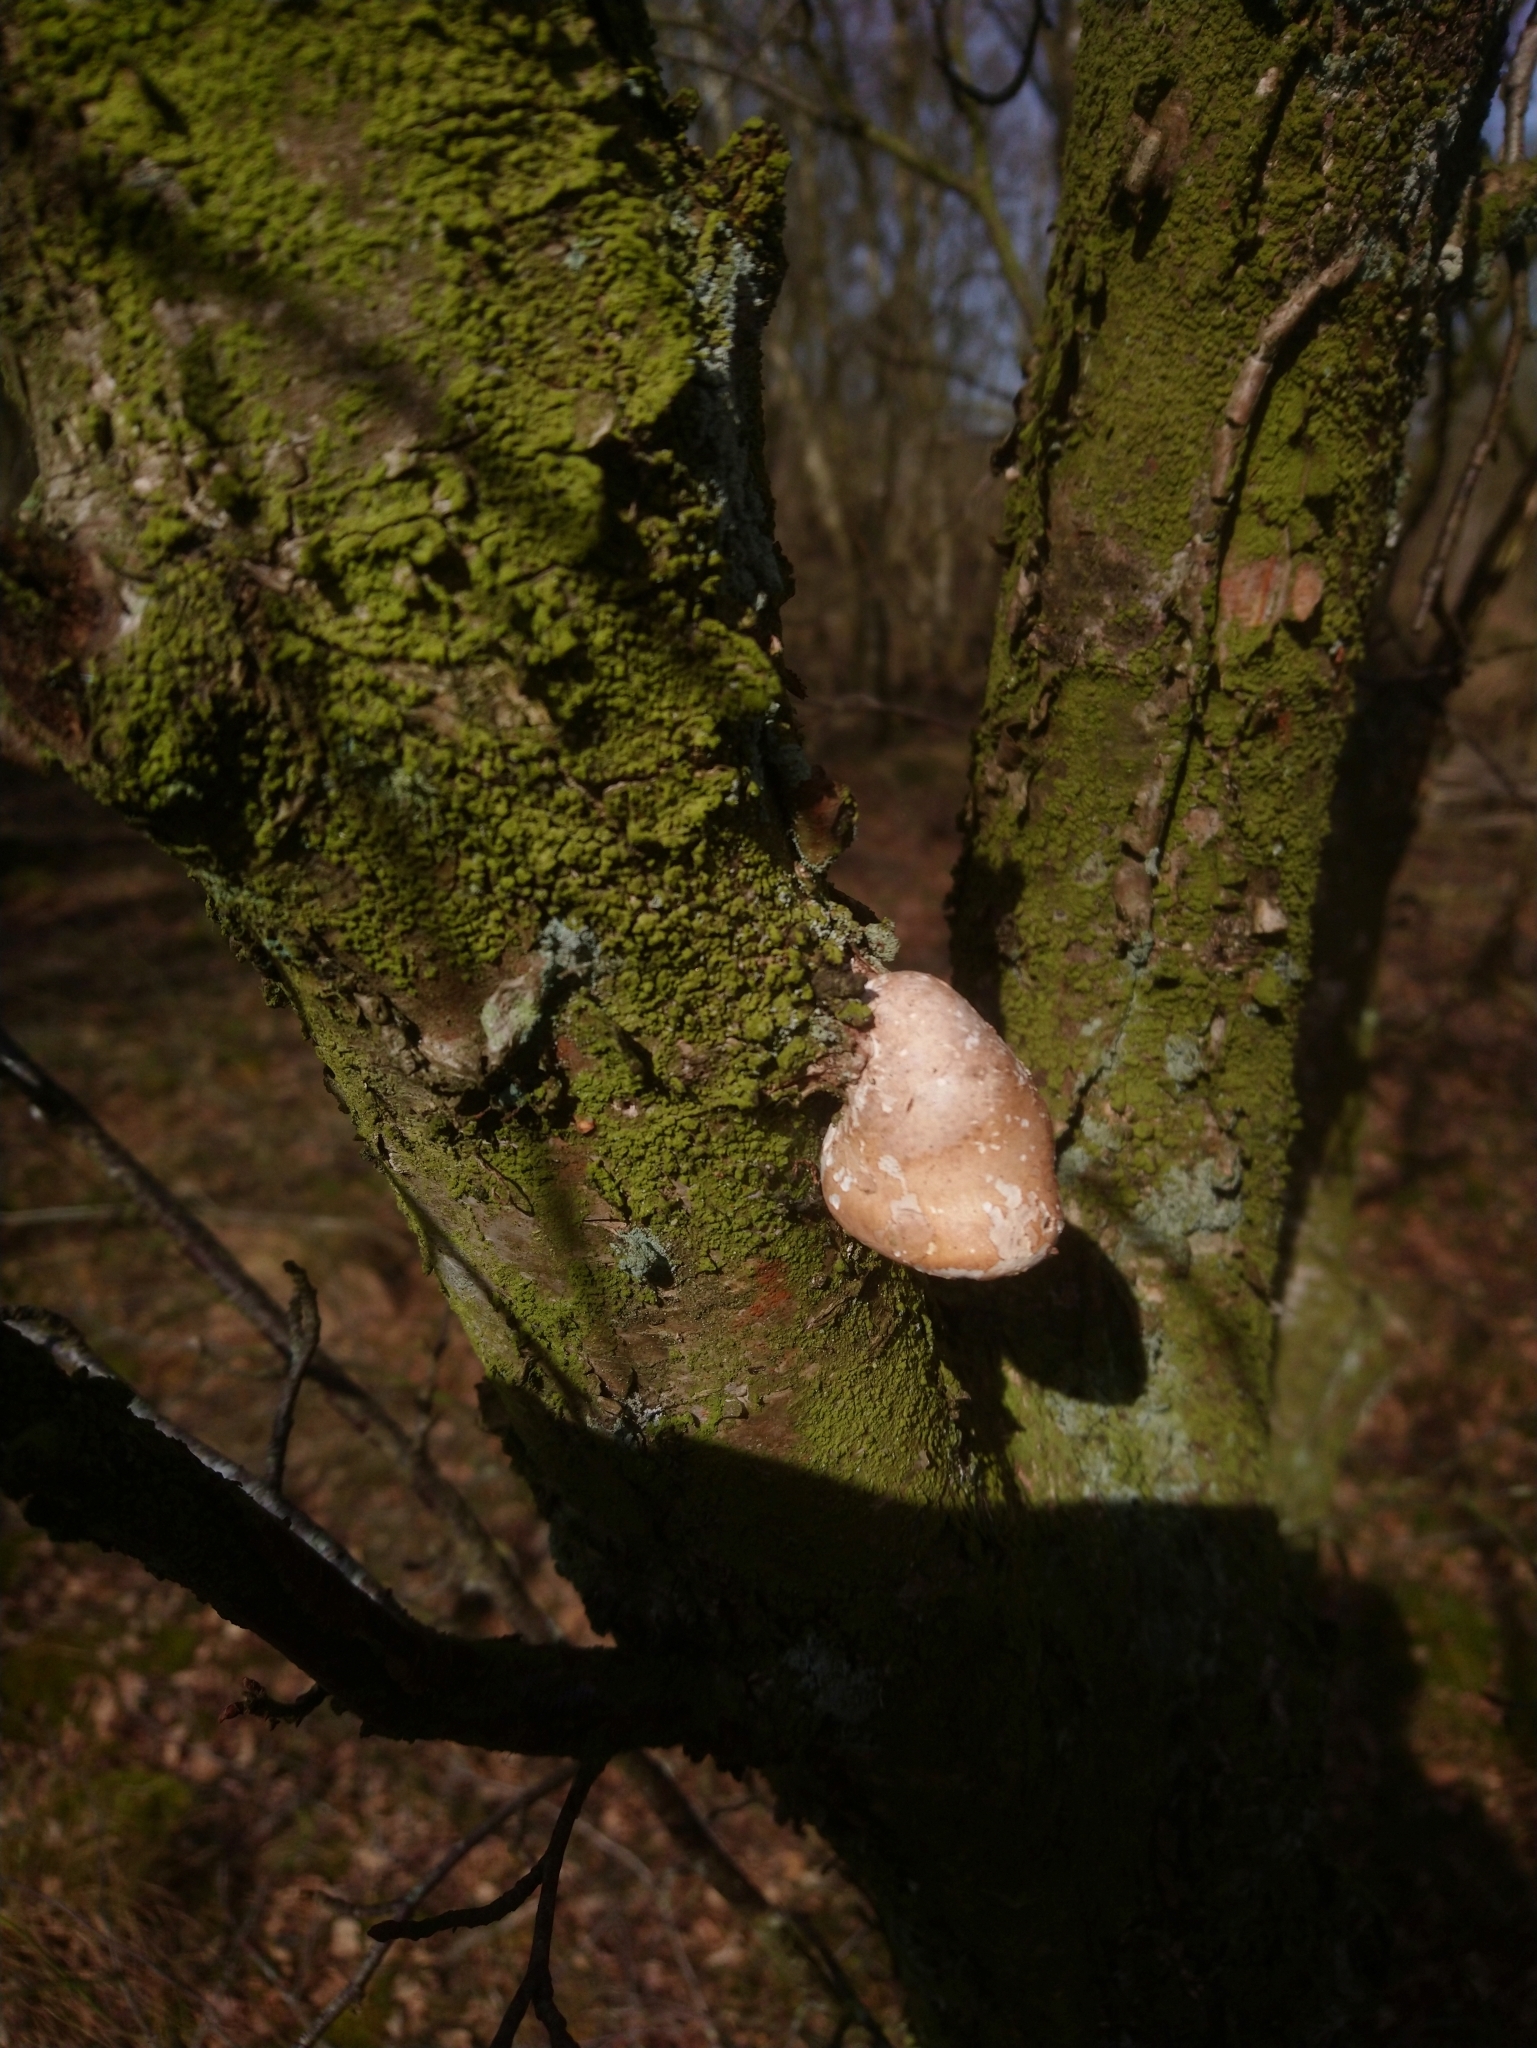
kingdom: Fungi
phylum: Basidiomycota
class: Agaricomycetes
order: Polyporales
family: Fomitopsidaceae
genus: Fomitopsis
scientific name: Fomitopsis betulina
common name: Birch polypore
